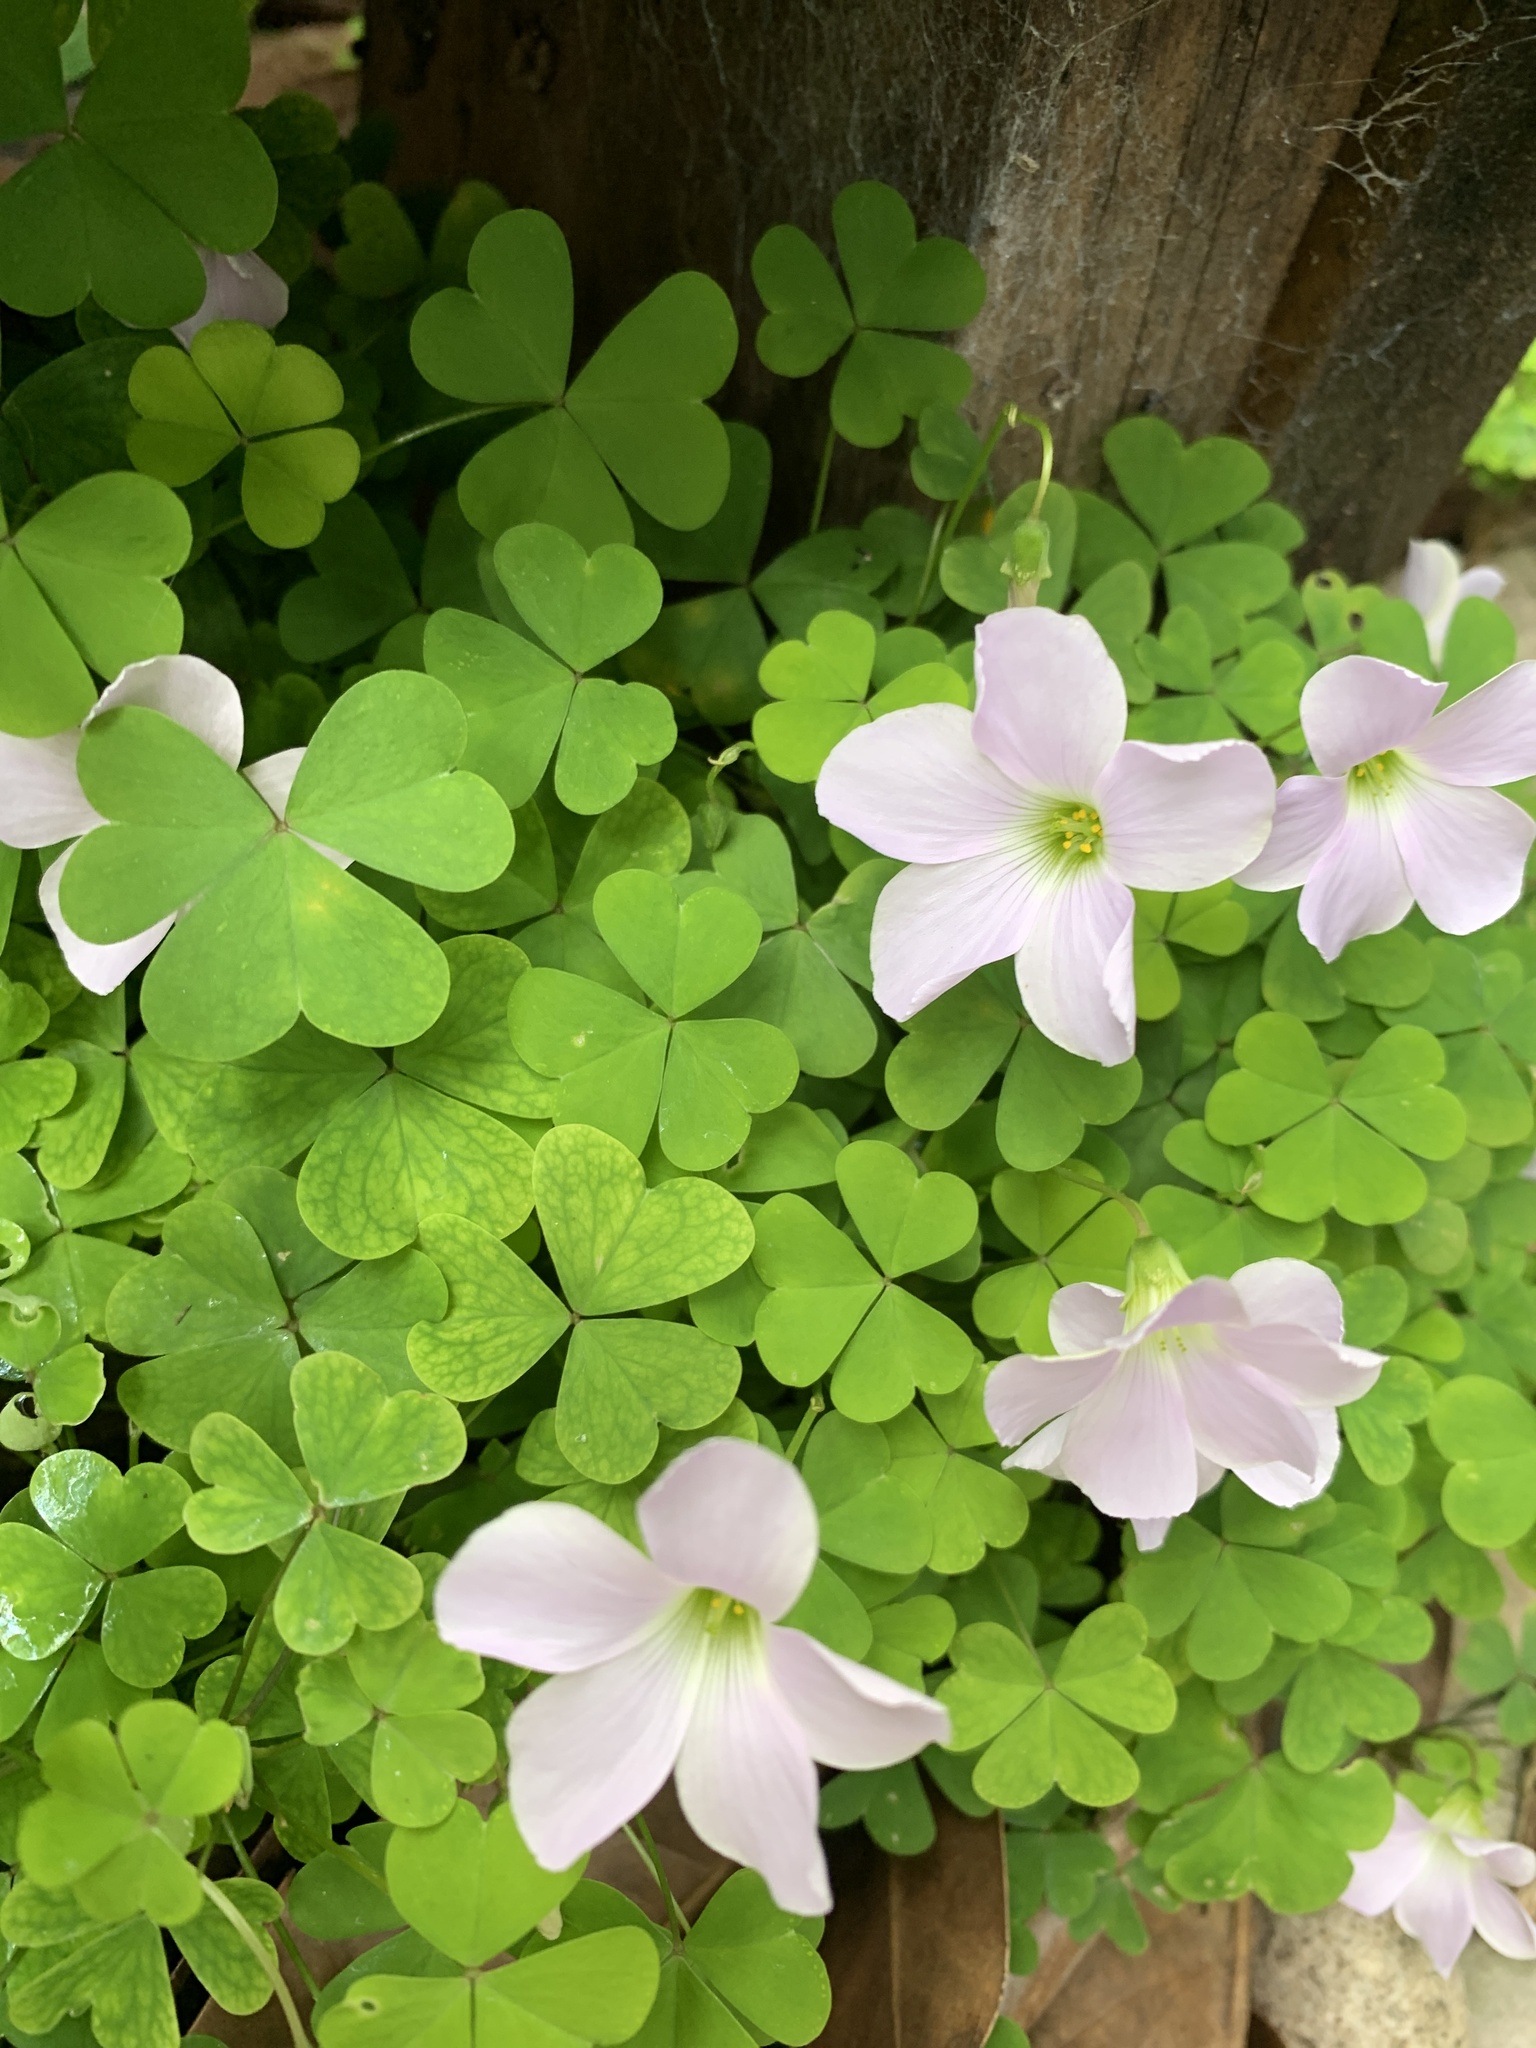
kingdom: Plantae
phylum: Tracheophyta
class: Magnoliopsida
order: Oxalidales
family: Oxalidaceae
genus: Oxalis
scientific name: Oxalis incarnata
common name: Pale pink-sorrel
